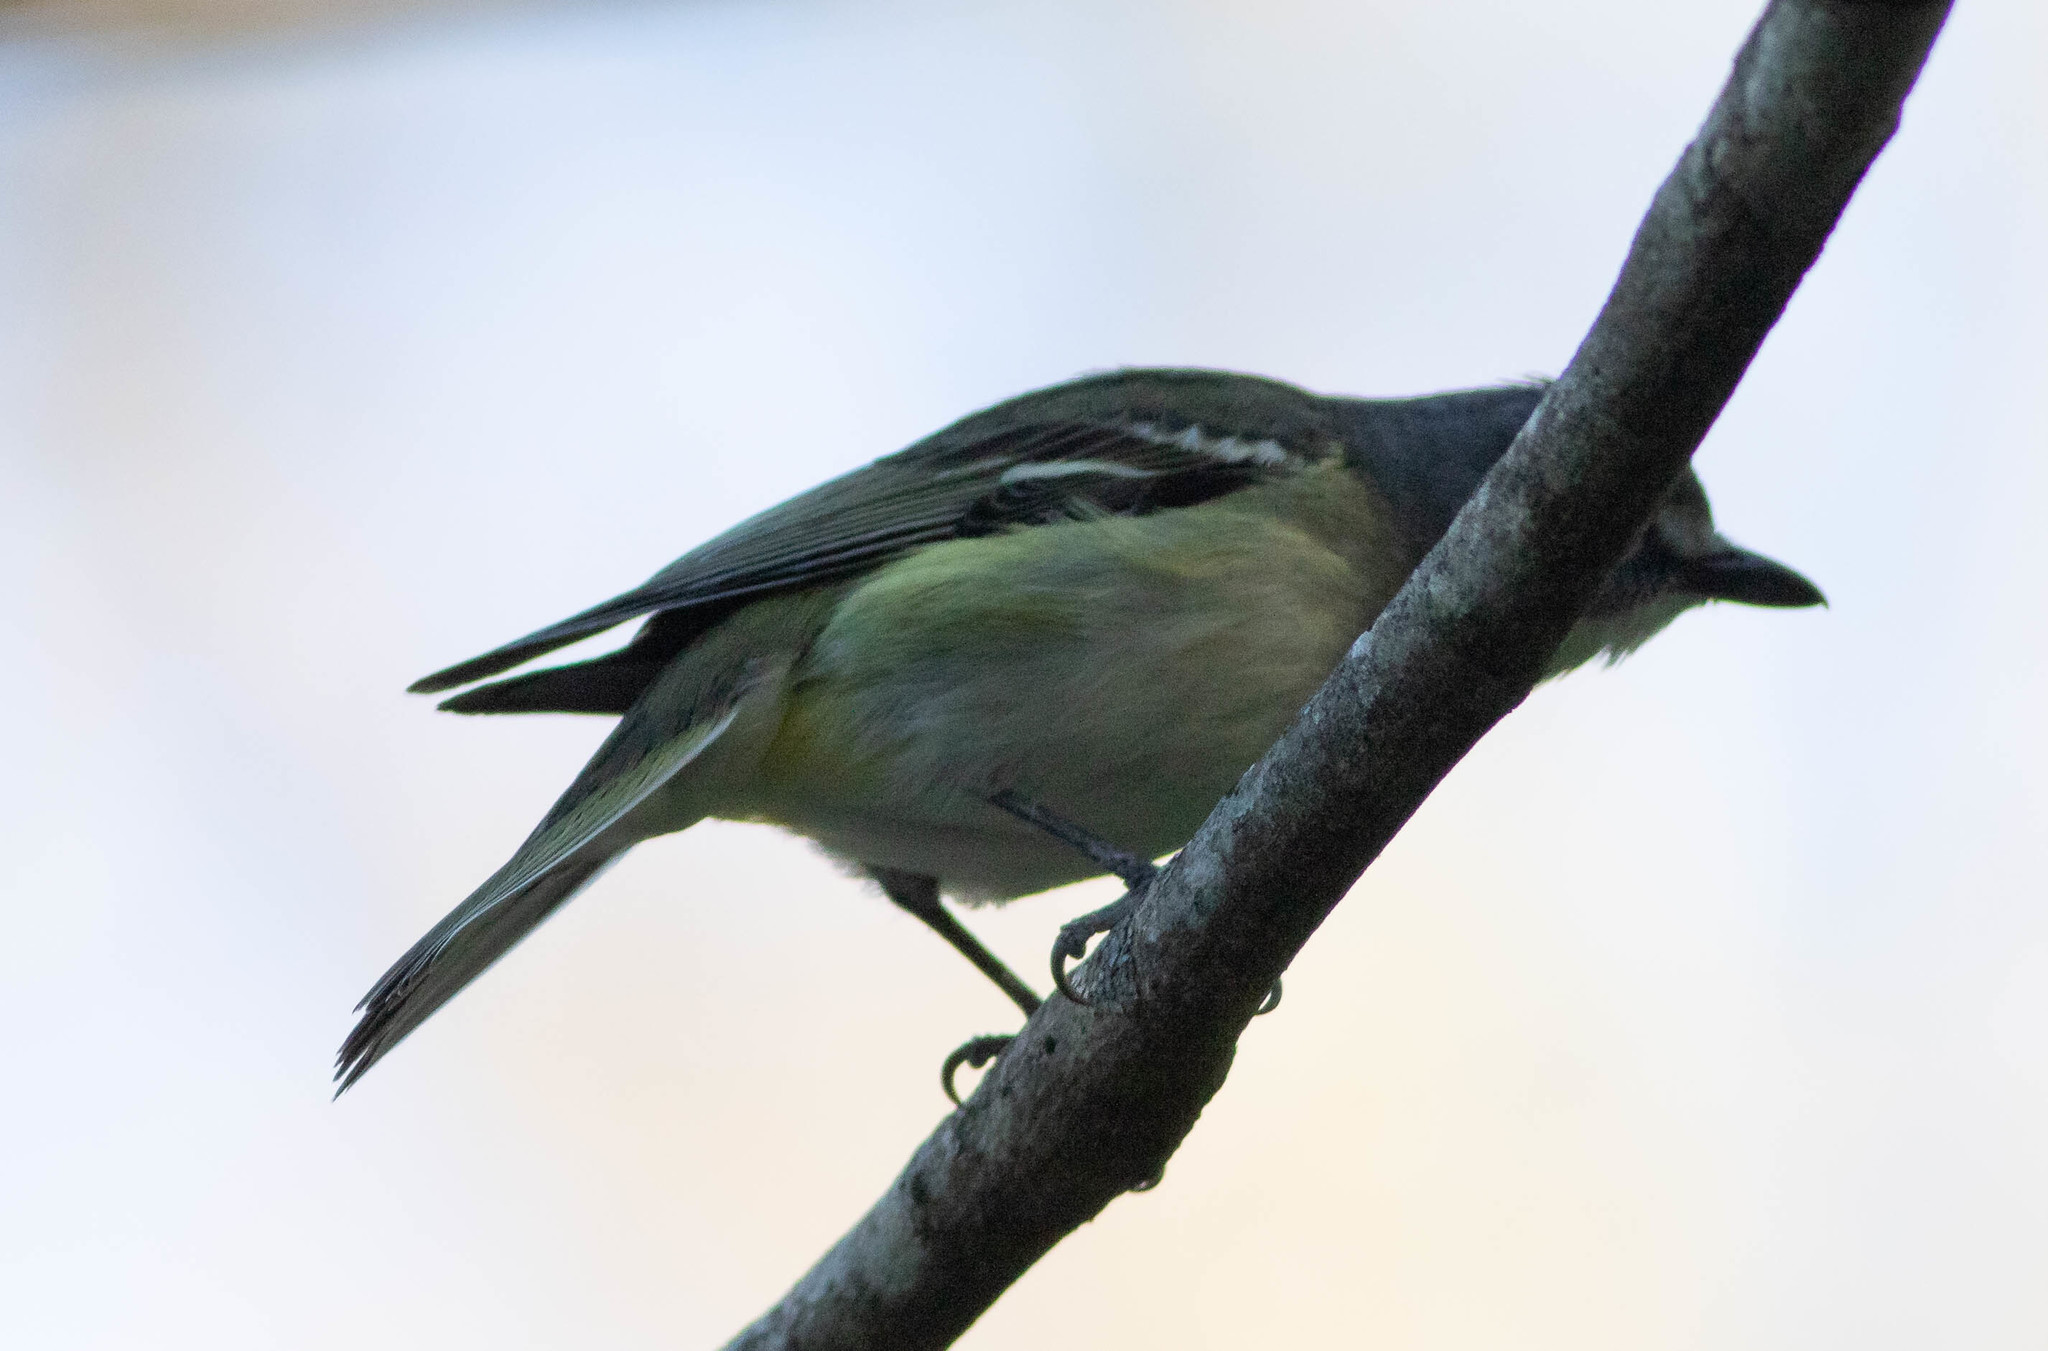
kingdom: Animalia
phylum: Chordata
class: Aves
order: Passeriformes
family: Vireonidae
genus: Vireo
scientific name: Vireo solitarius
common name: Blue-headed vireo
